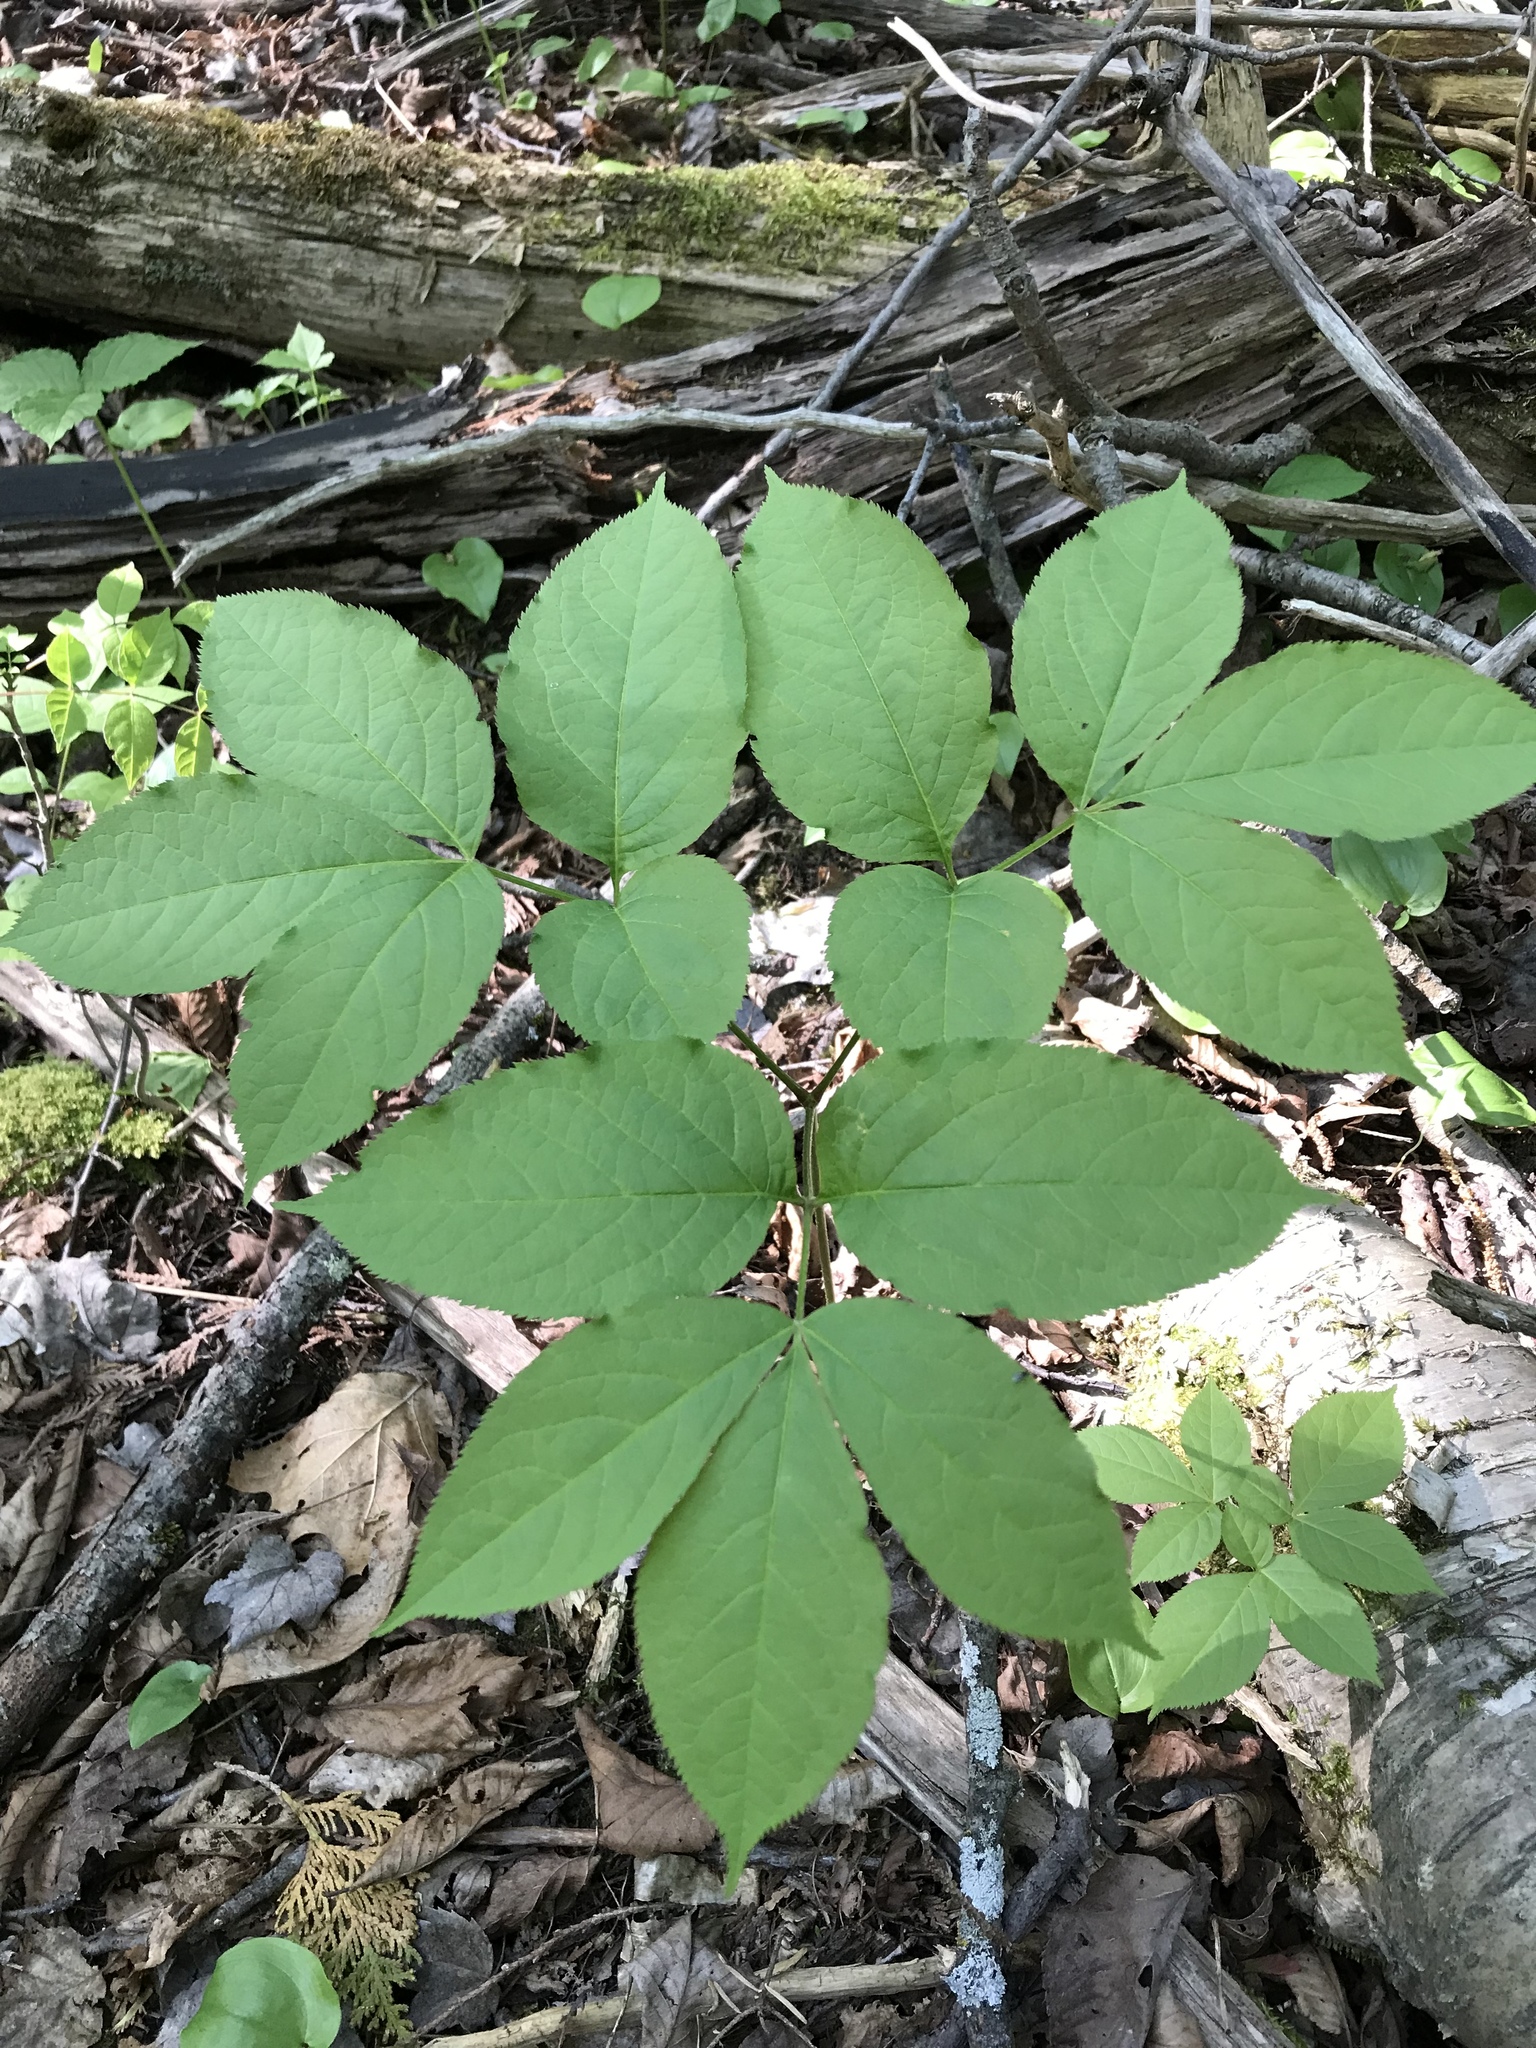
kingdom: Plantae
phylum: Tracheophyta
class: Magnoliopsida
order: Apiales
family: Araliaceae
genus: Aralia
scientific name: Aralia nudicaulis
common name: Wild sarsaparilla
